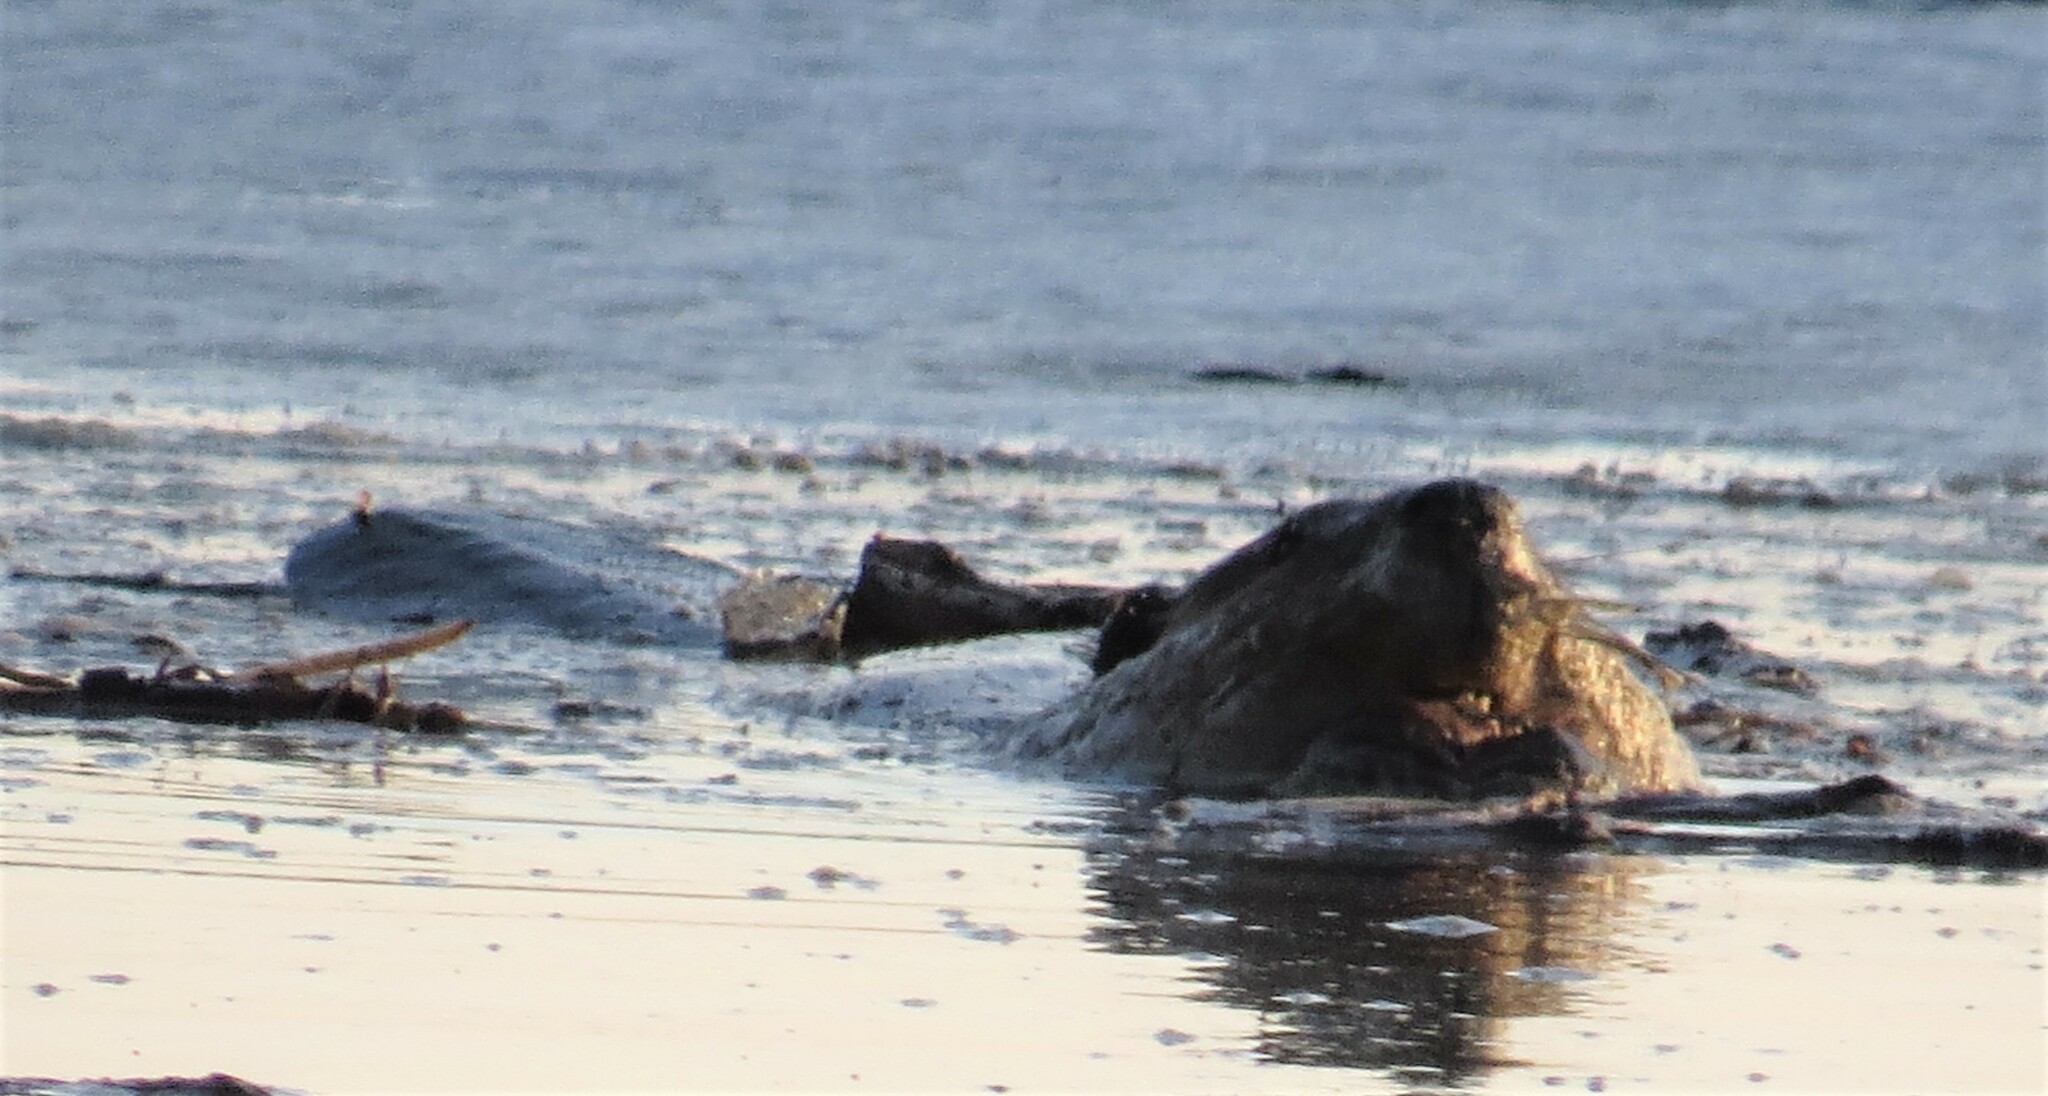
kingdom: Animalia
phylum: Chordata
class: Mammalia
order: Rodentia
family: Castoridae
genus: Castor
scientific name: Castor canadensis
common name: American beaver
